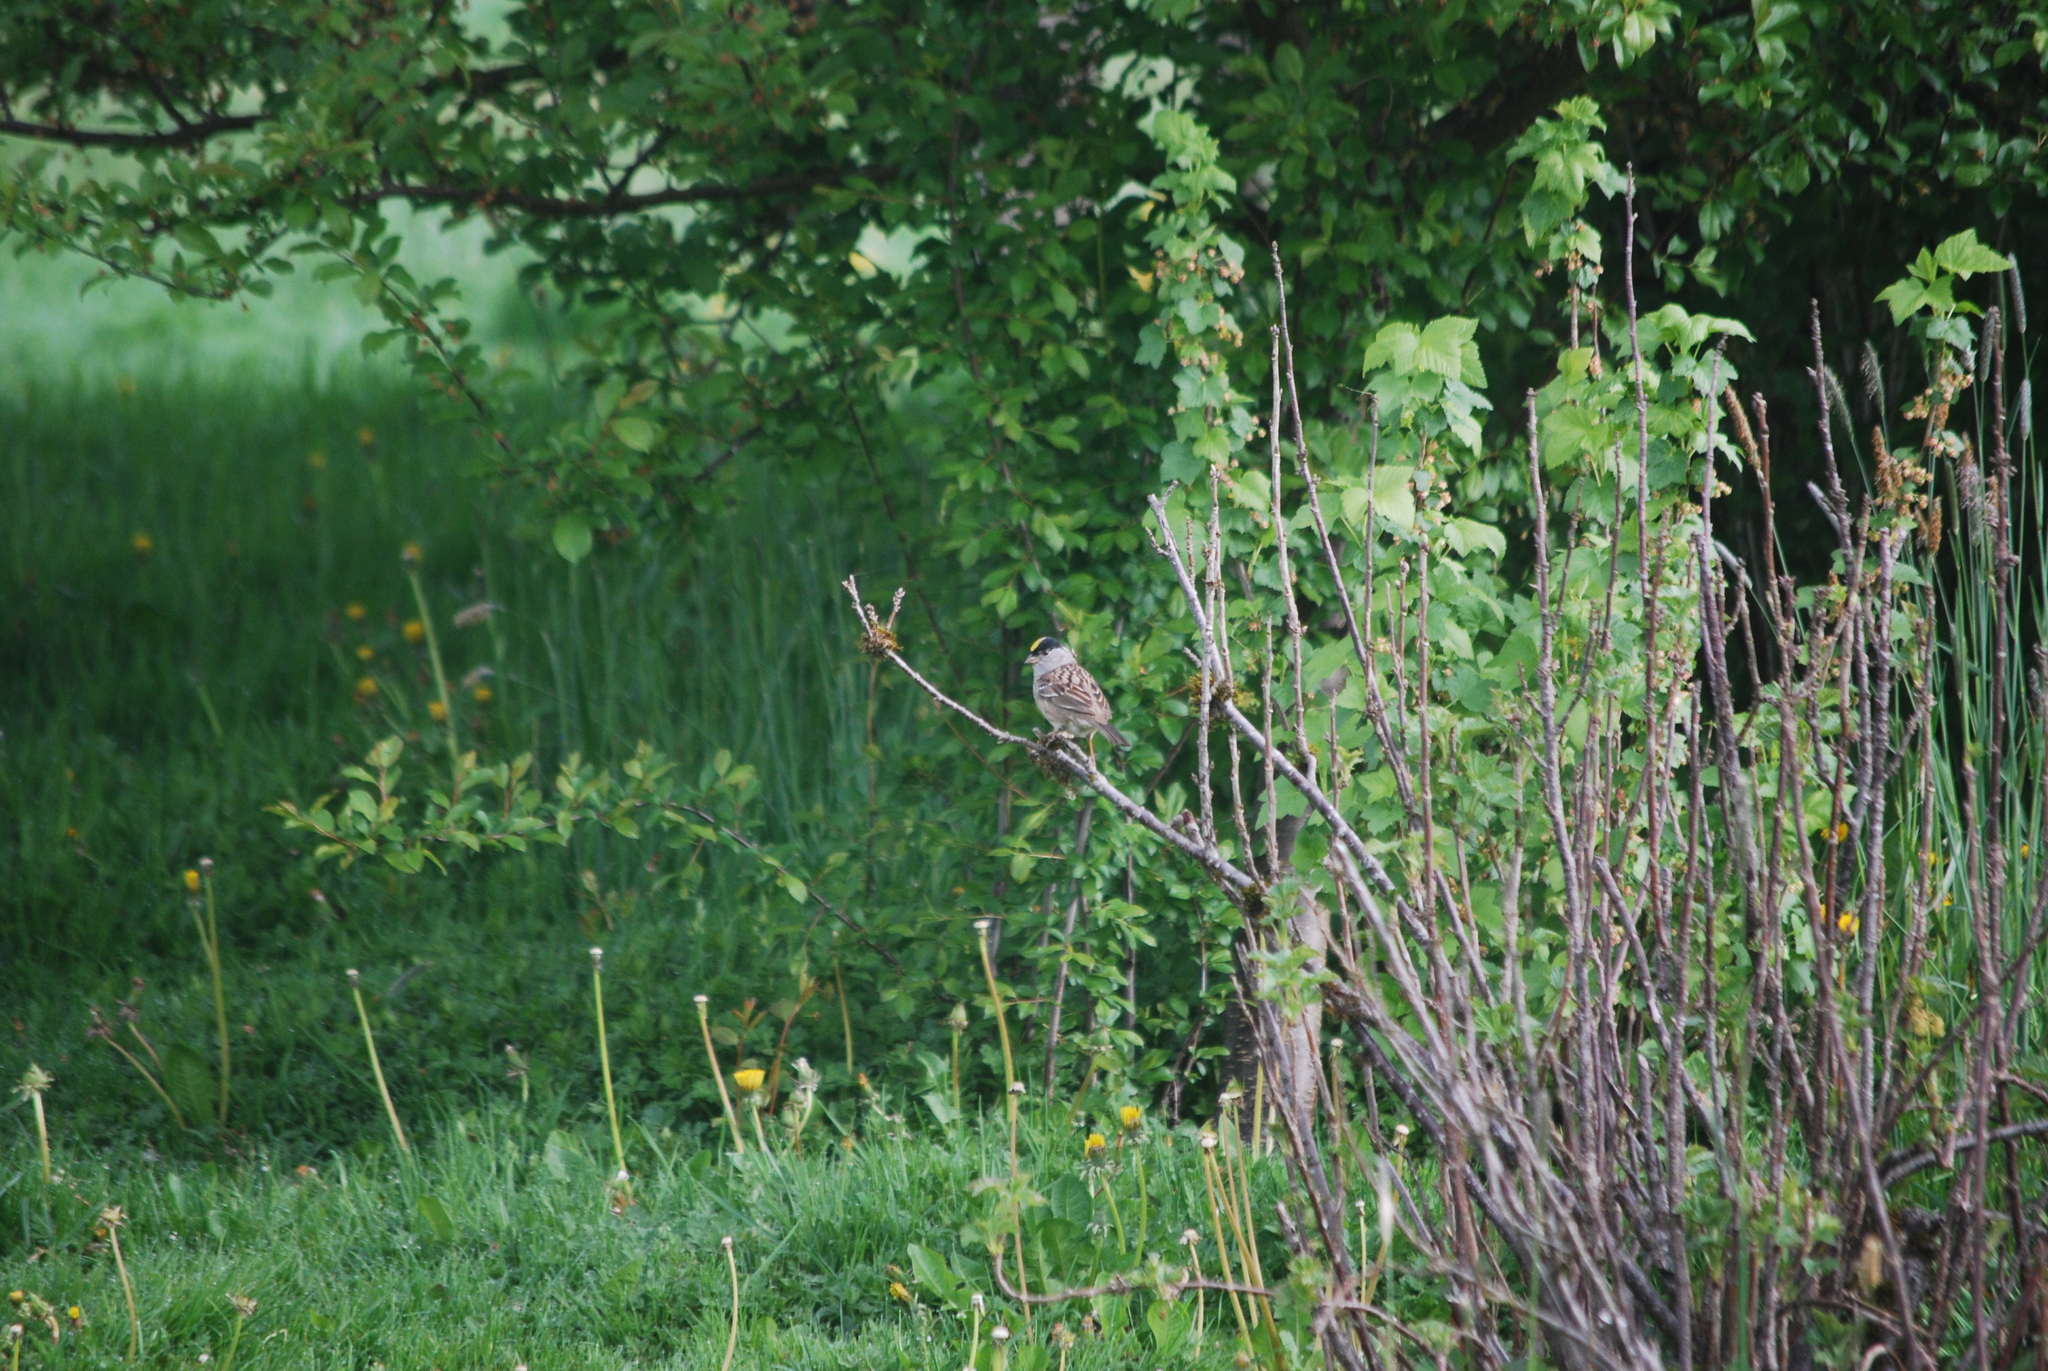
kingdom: Animalia
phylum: Chordata
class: Aves
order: Passeriformes
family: Passerellidae
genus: Zonotrichia
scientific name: Zonotrichia atricapilla
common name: Golden-crowned sparrow
